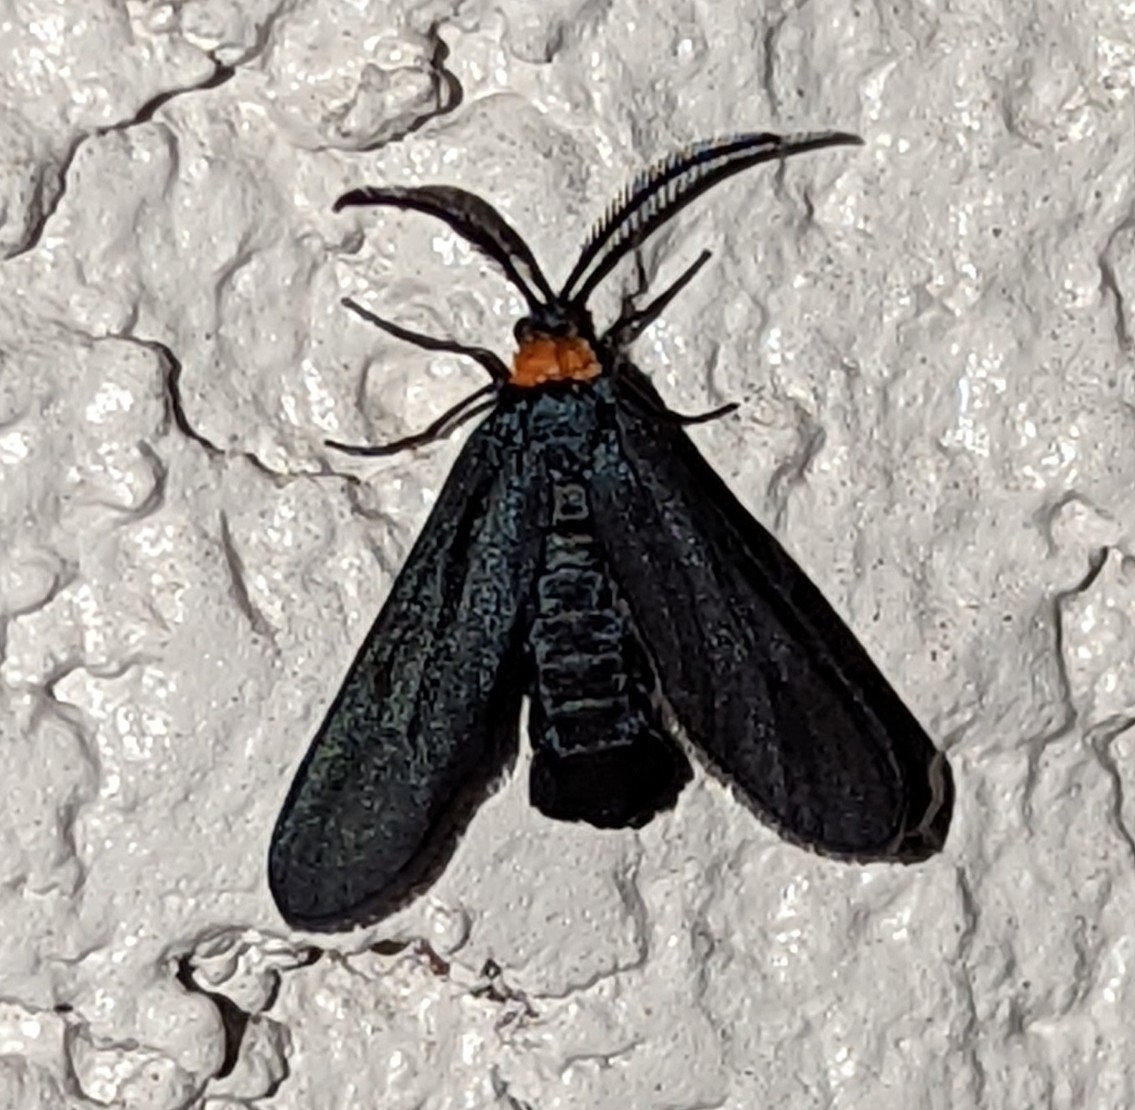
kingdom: Animalia
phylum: Arthropoda
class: Insecta
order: Lepidoptera
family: Zygaenidae
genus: Harrisina
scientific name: Harrisina americana
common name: Grapeleaf skeletonizer moth
